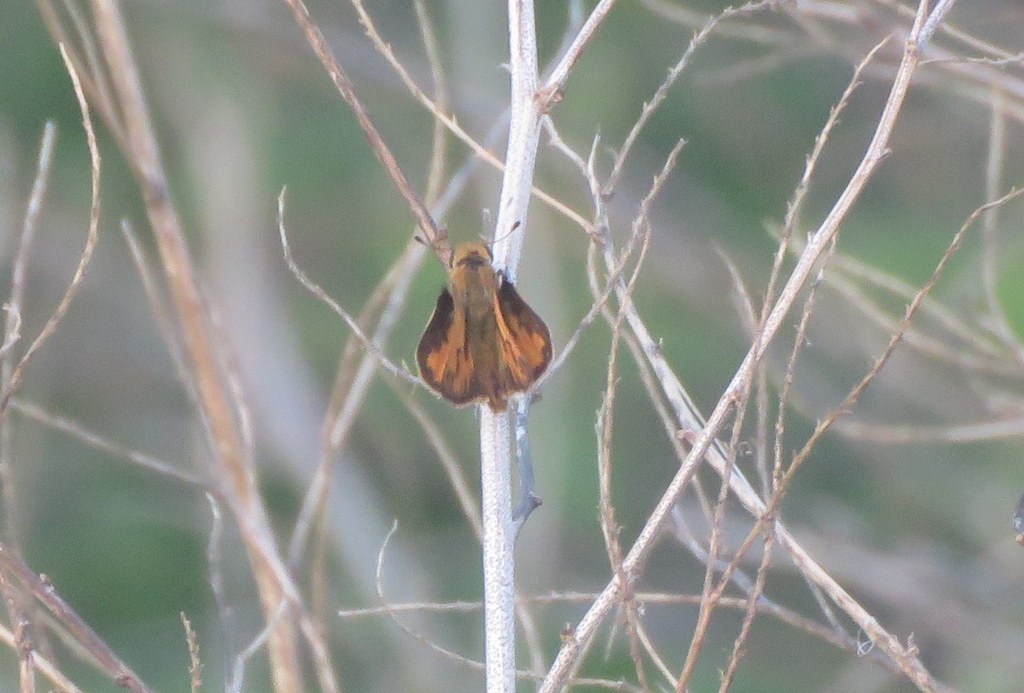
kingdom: Animalia
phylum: Arthropoda
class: Insecta
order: Lepidoptera
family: Hesperiidae
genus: Hylephila
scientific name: Hylephila phyleus
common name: Fiery skipper
